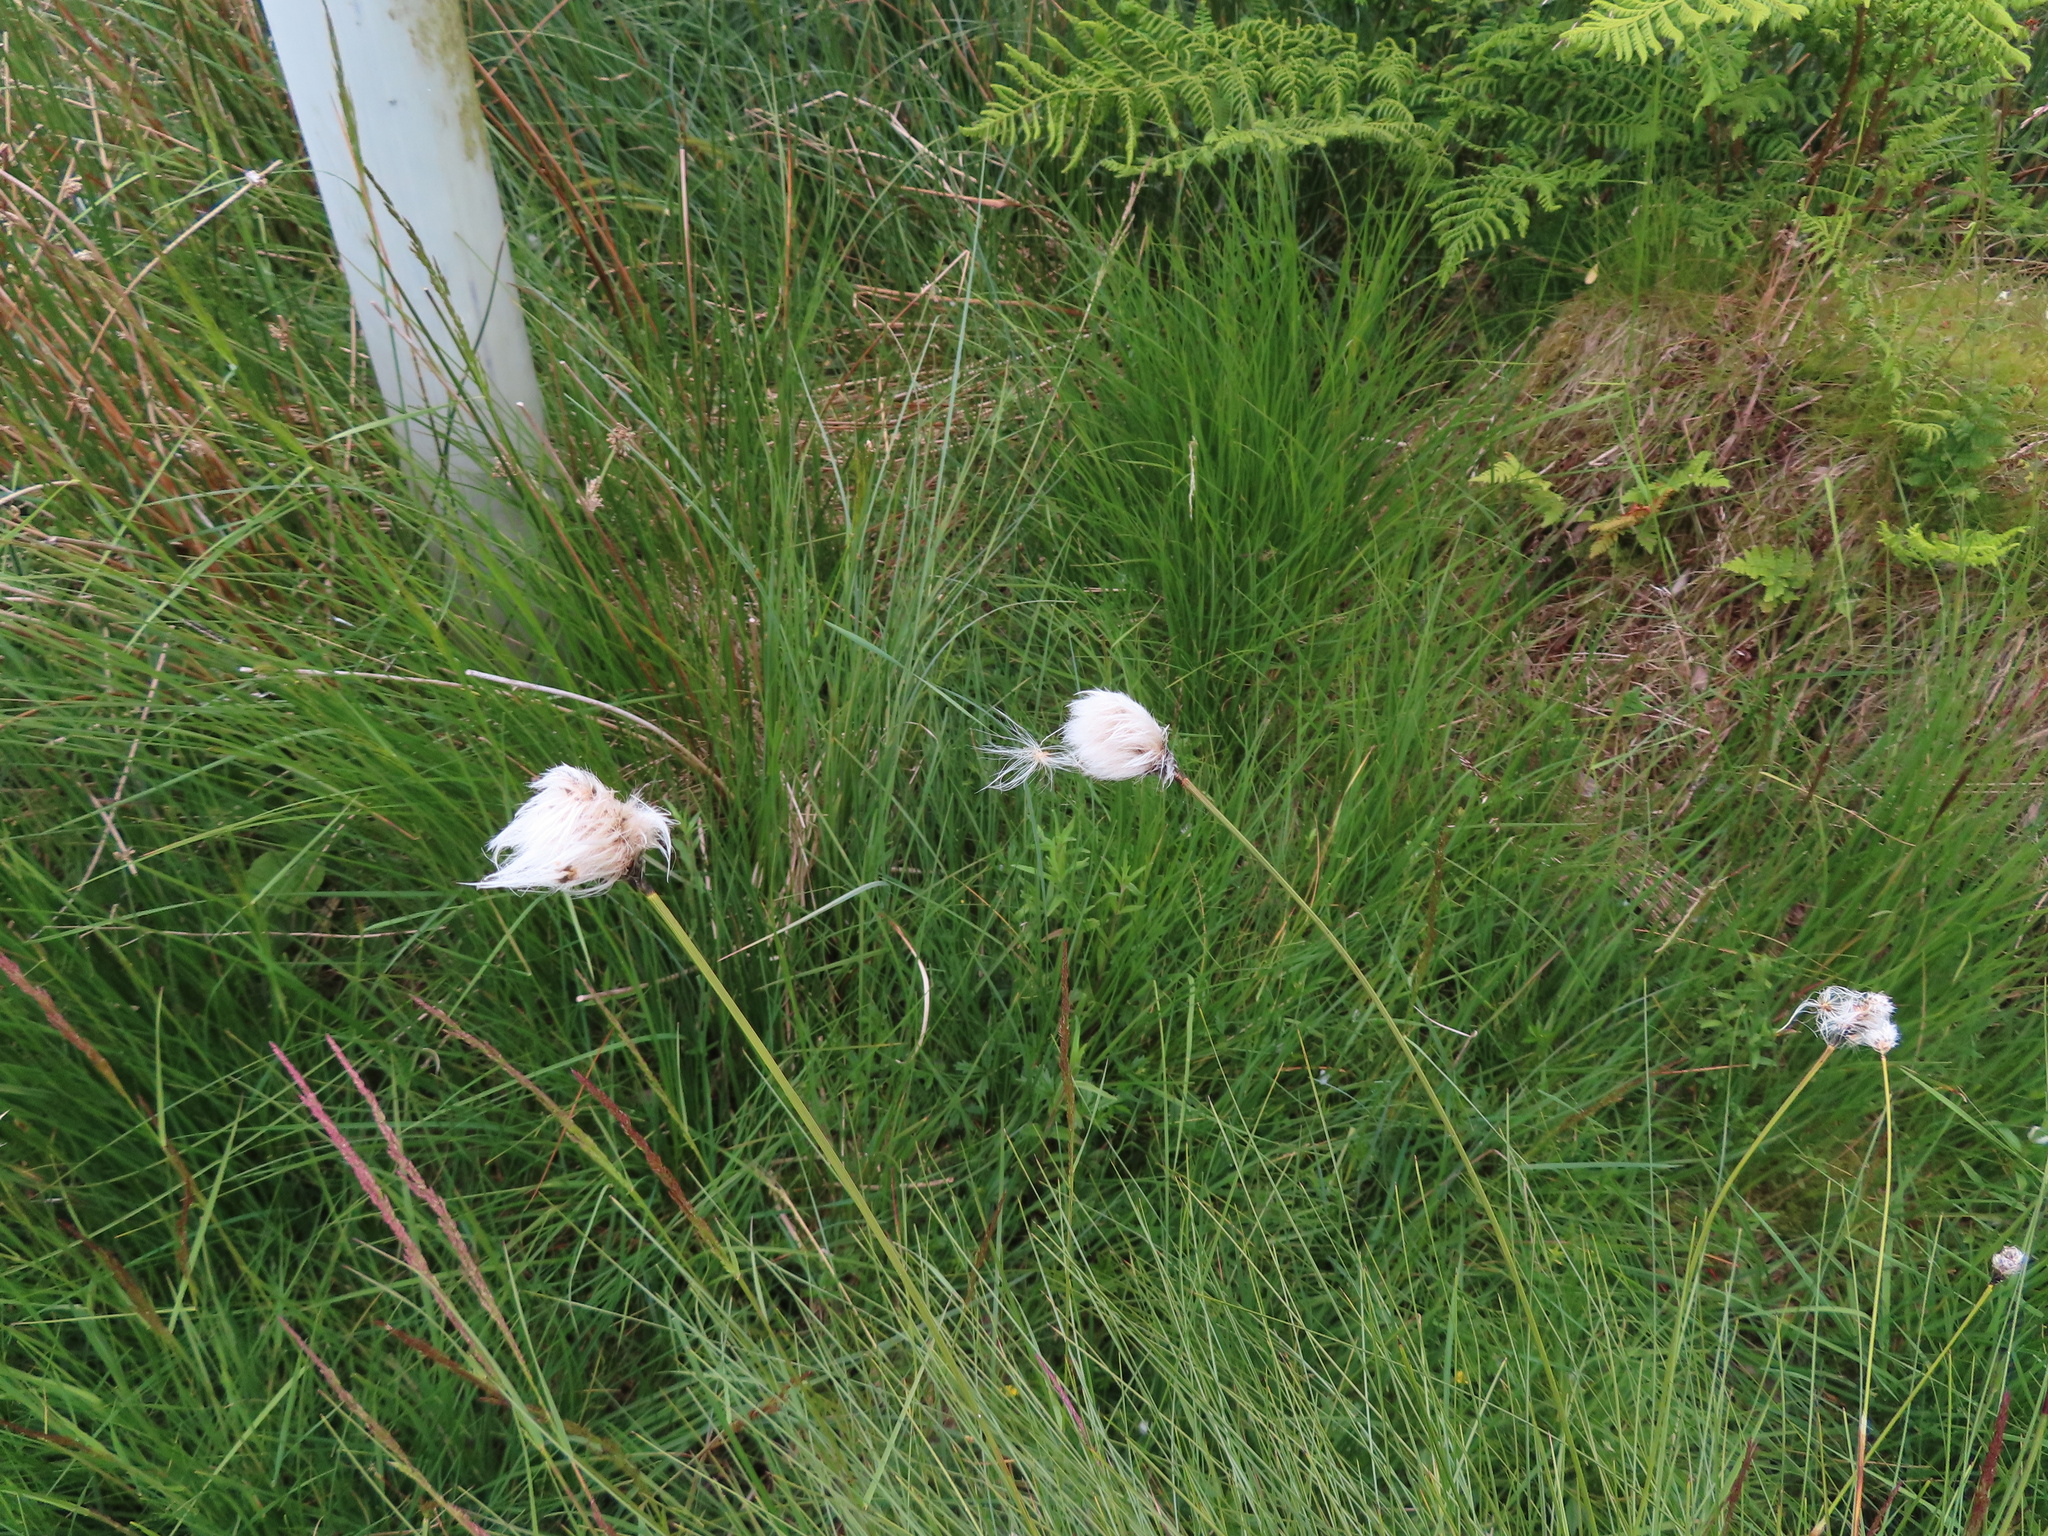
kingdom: Plantae
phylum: Tracheophyta
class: Liliopsida
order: Poales
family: Cyperaceae
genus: Eriophorum
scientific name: Eriophorum vaginatum
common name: Hare's-tail cottongrass
